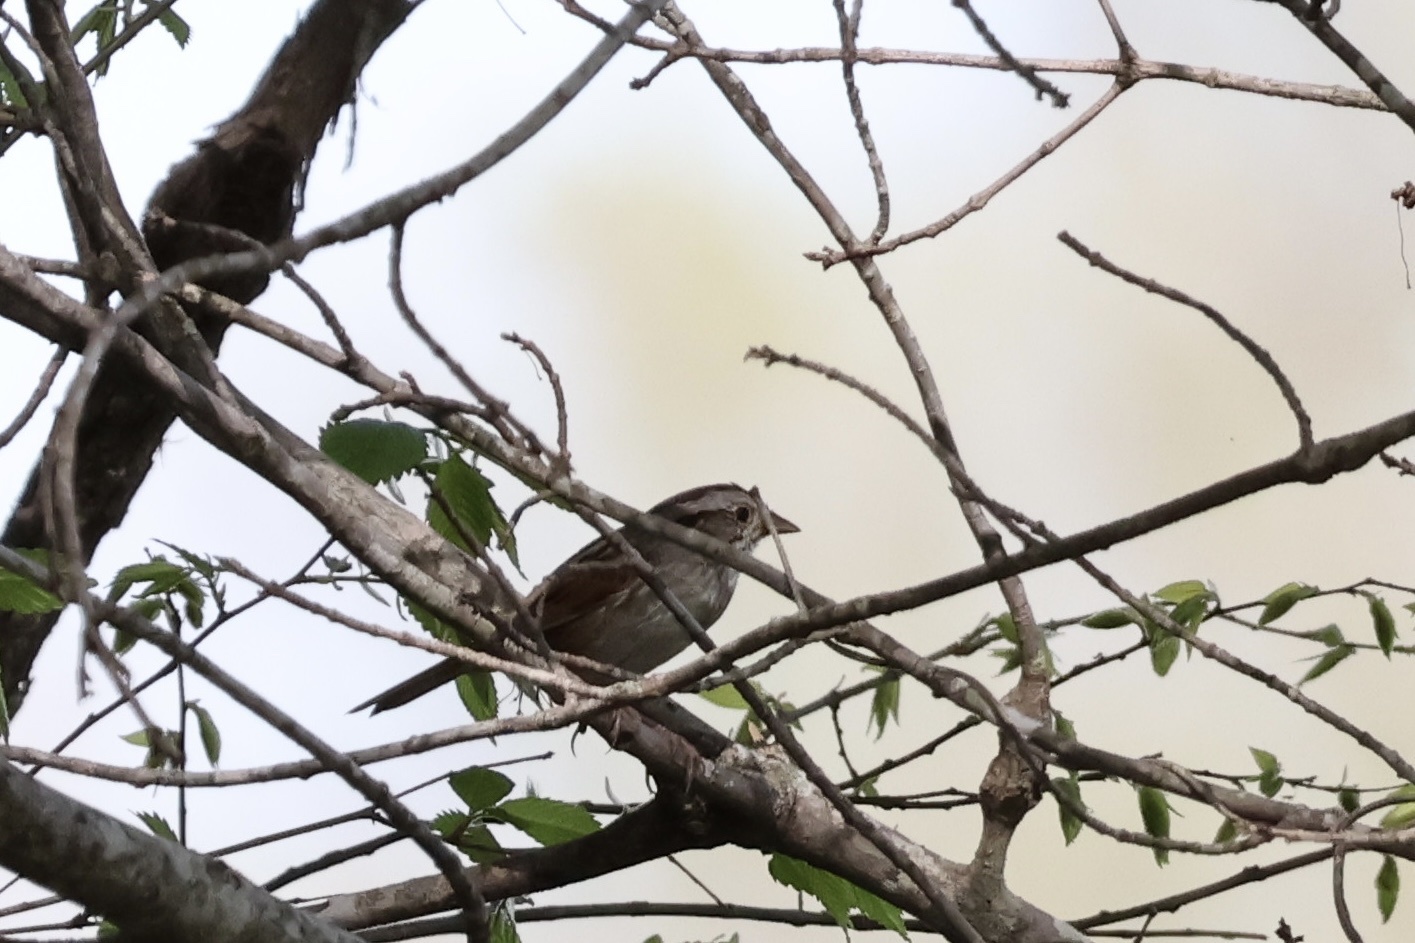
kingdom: Animalia
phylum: Chordata
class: Aves
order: Passeriformes
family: Passerellidae
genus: Melospiza
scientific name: Melospiza georgiana
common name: Swamp sparrow
